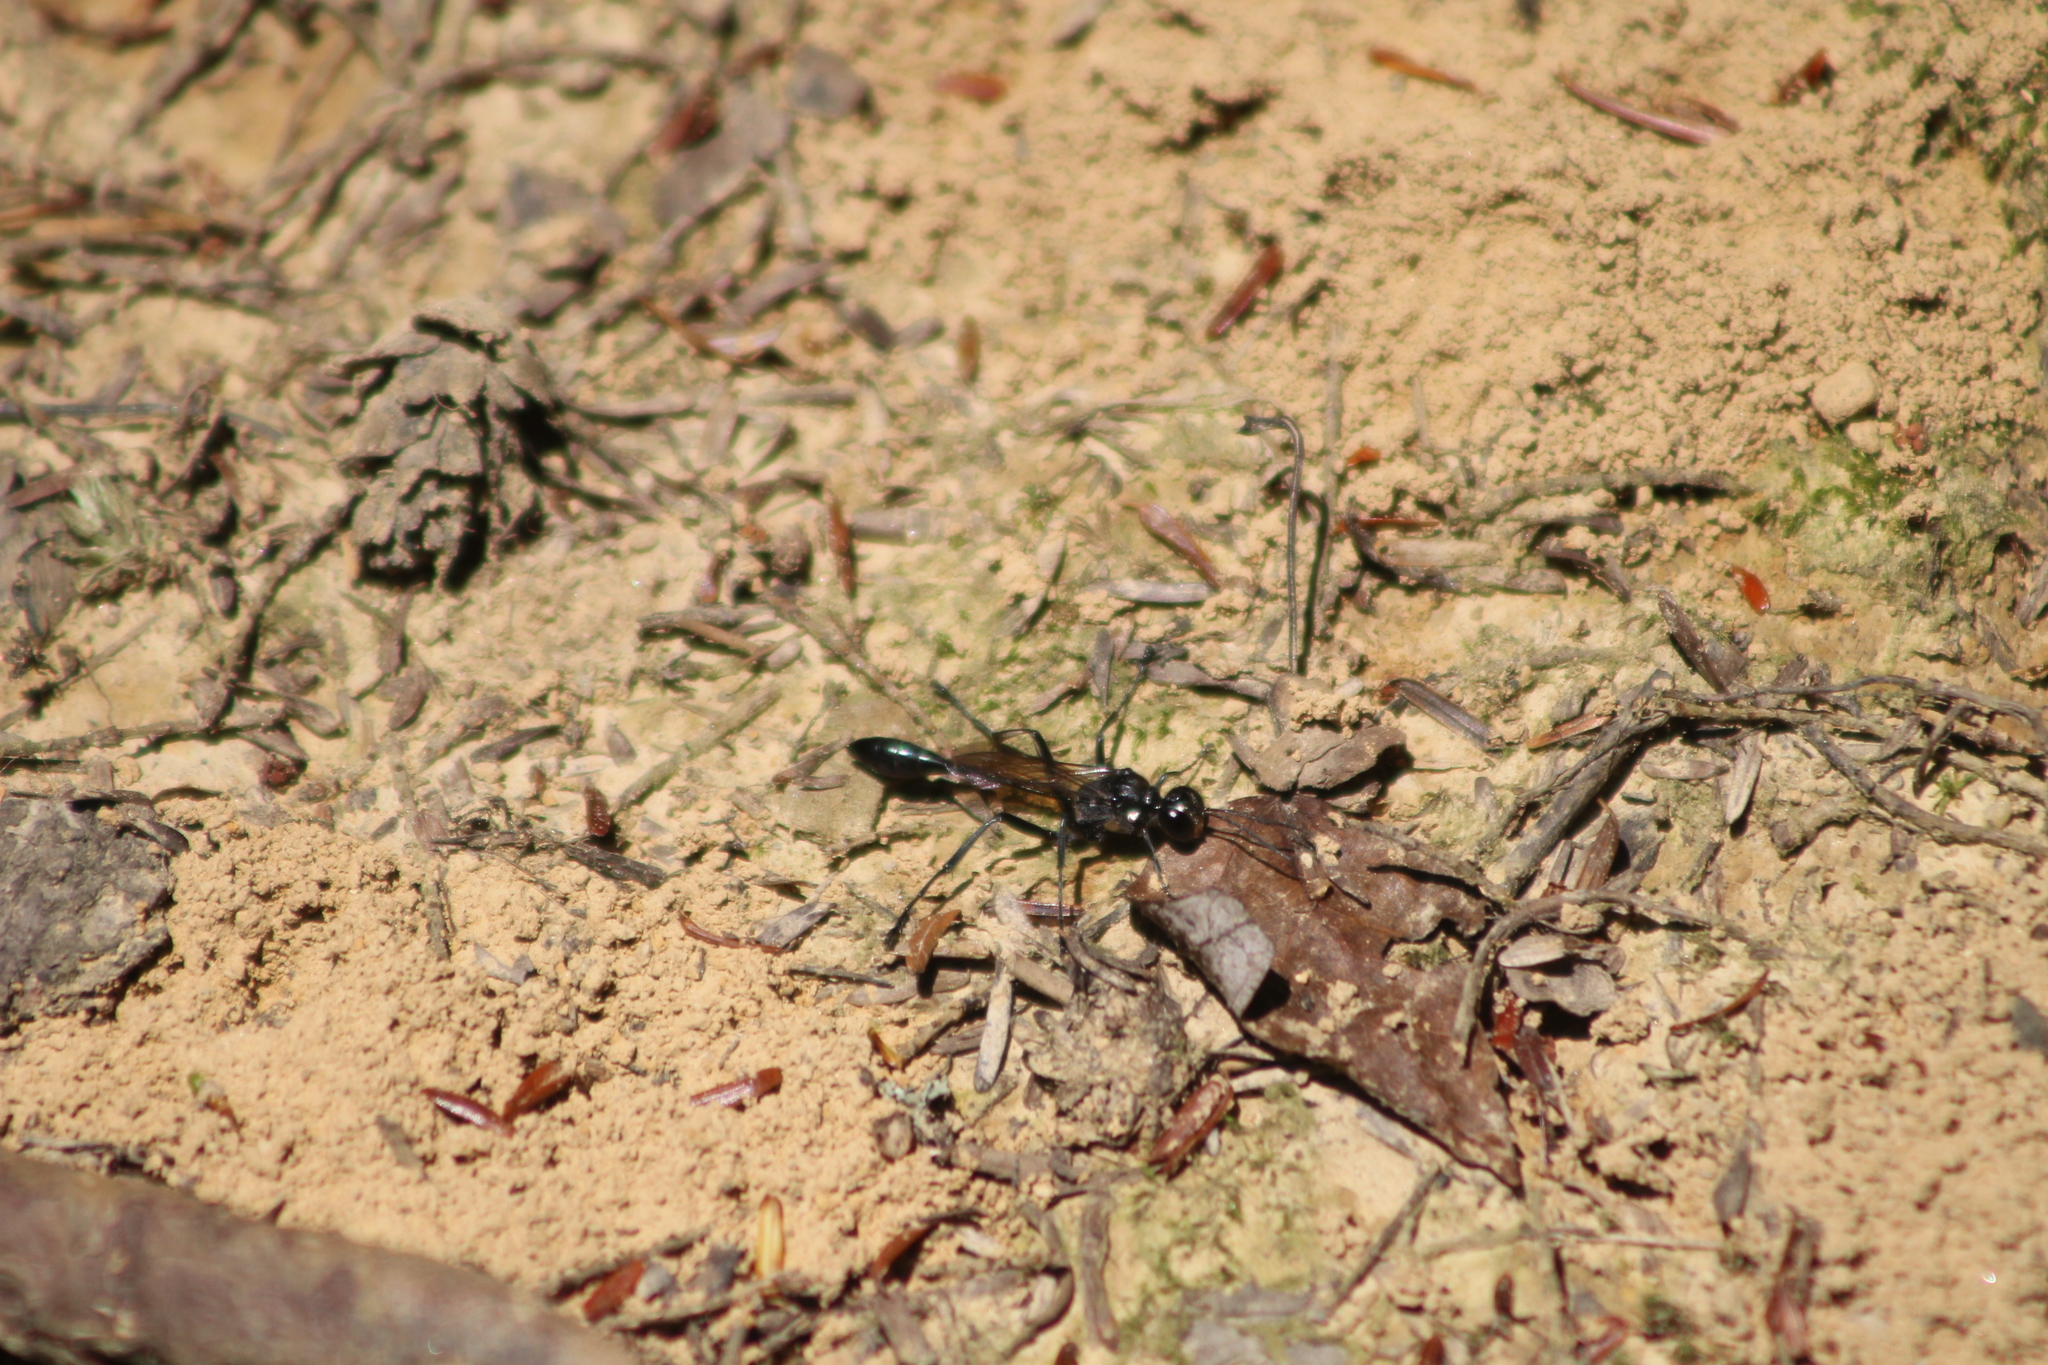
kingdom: Animalia
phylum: Arthropoda
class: Insecta
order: Hymenoptera
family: Sphecidae
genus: Eremnophila
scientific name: Eremnophila aureonotata
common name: Gold-marked thread-waisted wasp
